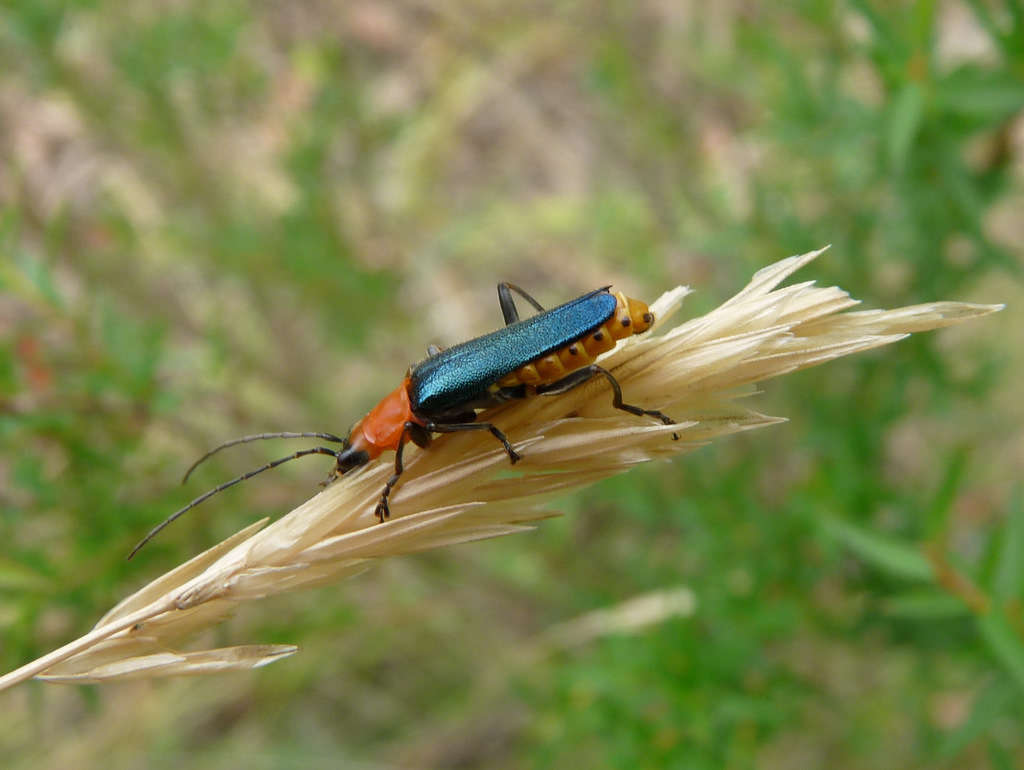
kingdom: Animalia
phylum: Arthropoda
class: Insecta
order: Coleoptera
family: Cantharidae
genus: Chauliognathus
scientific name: Chauliognathus
